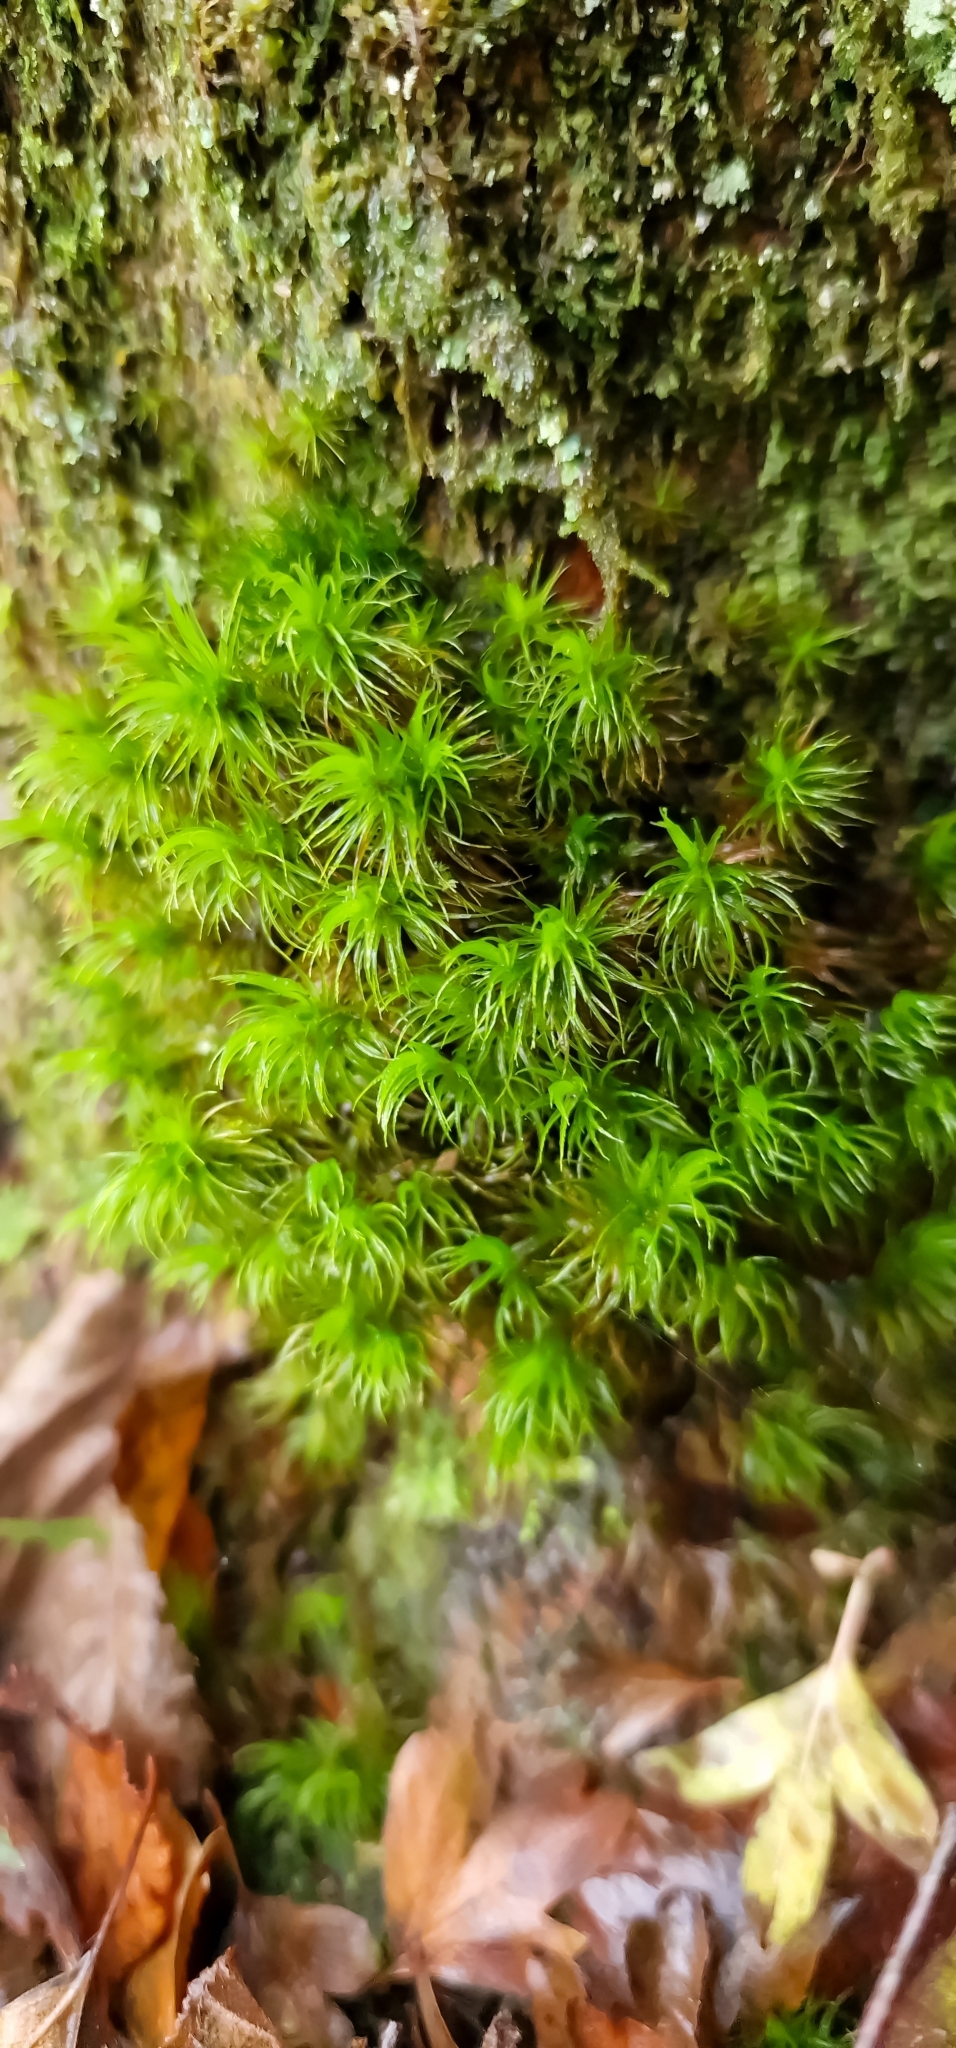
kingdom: Plantae
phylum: Bryophyta
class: Bryopsida
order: Dicranales
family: Dicranaceae
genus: Dicranum
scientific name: Dicranum scoparium
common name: Broom fork-moss
